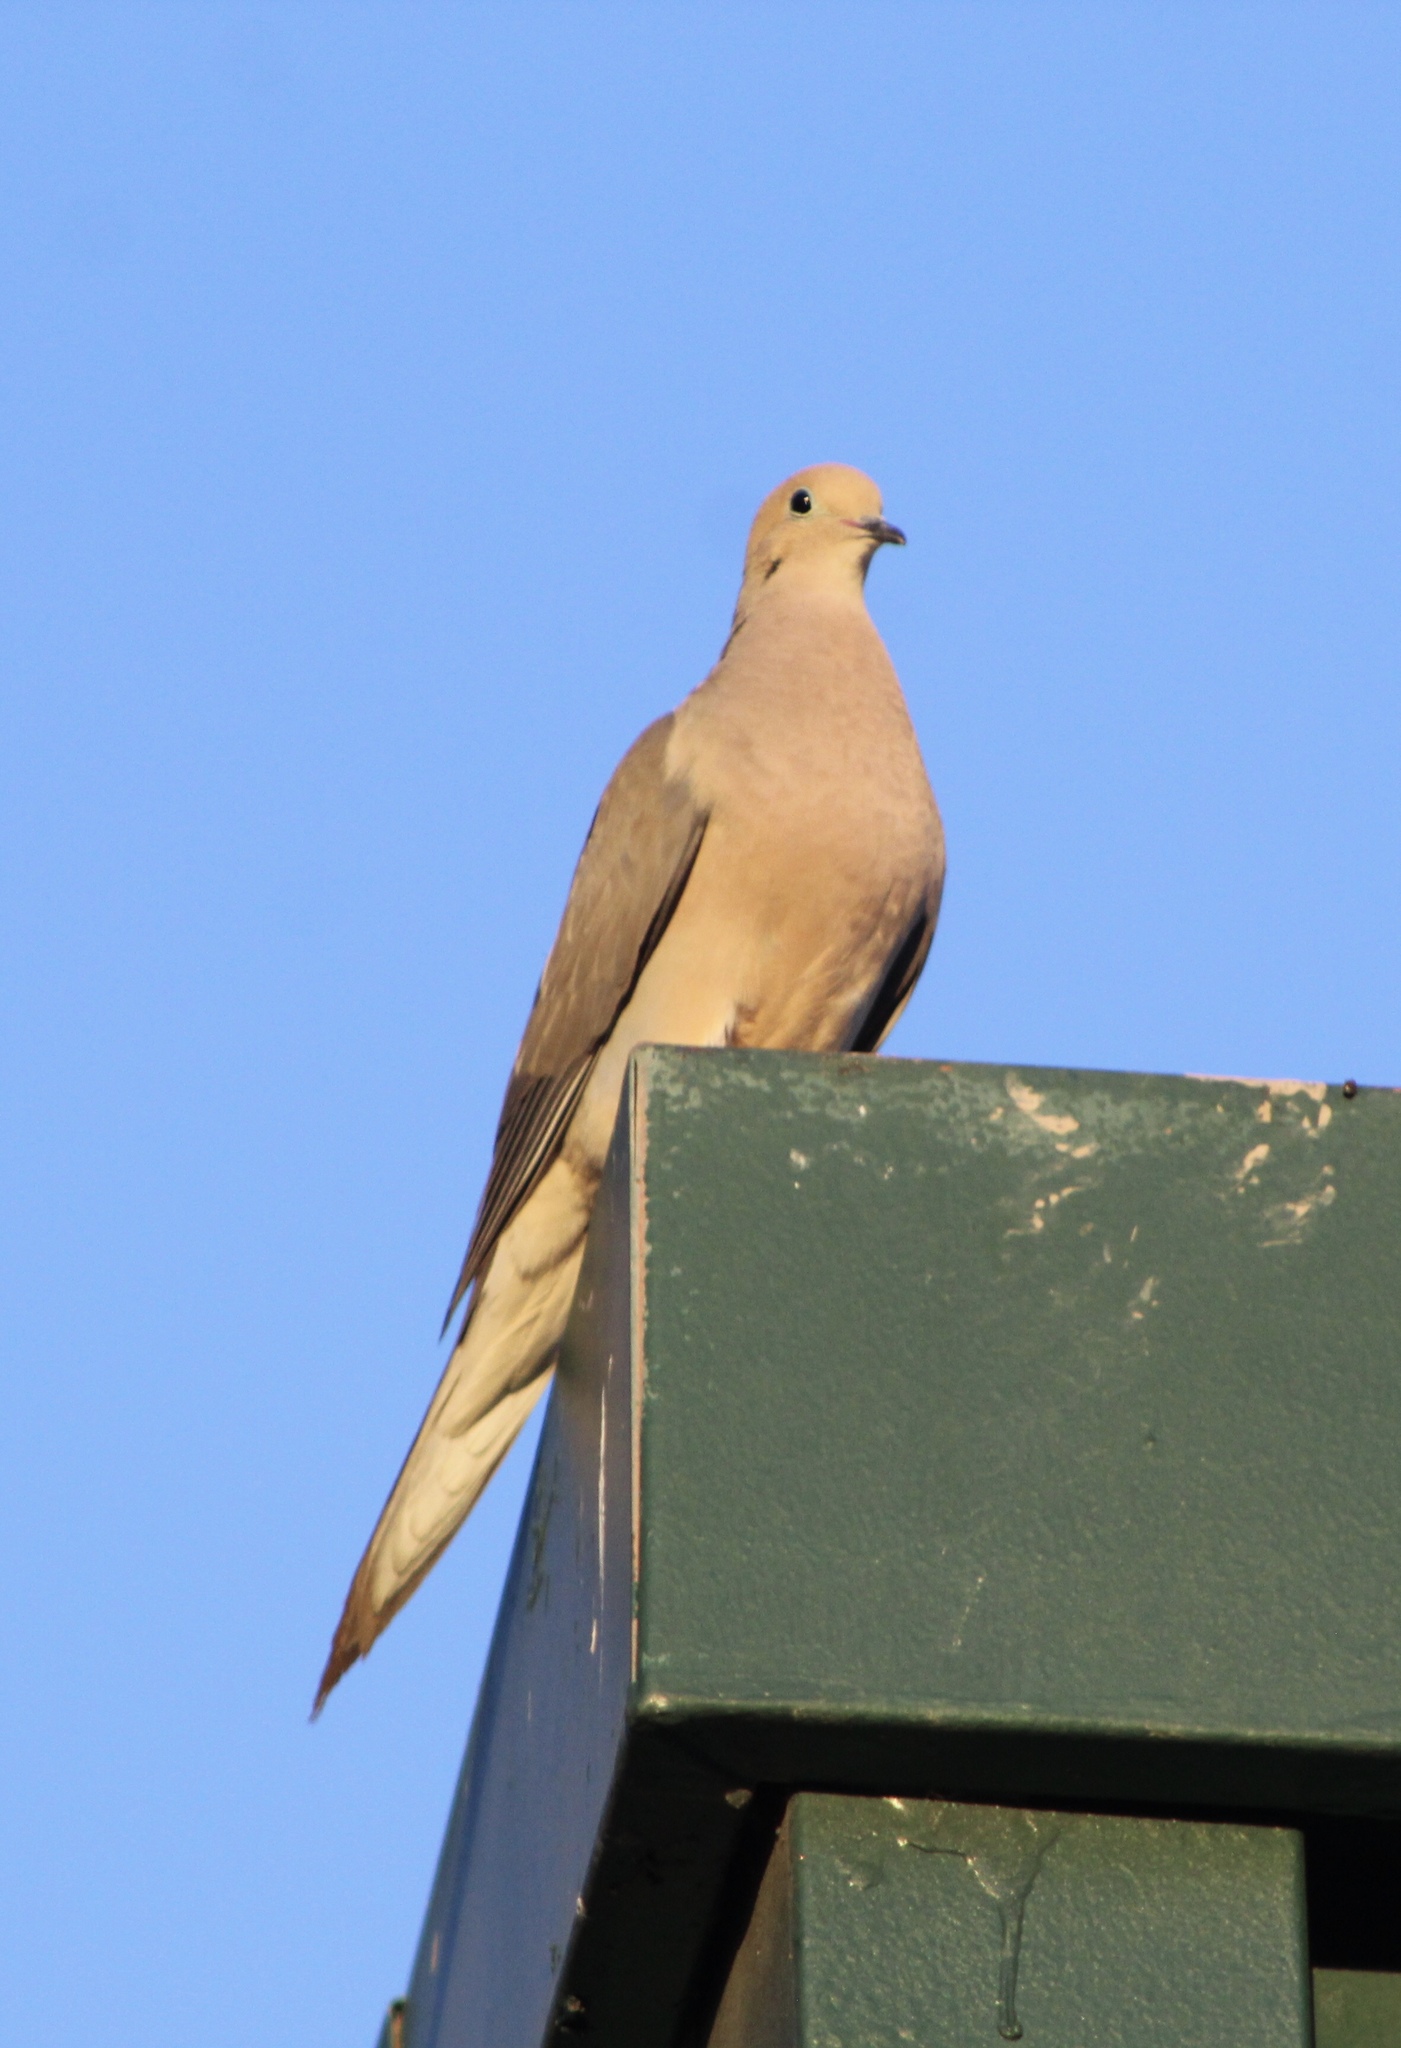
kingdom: Animalia
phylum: Chordata
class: Aves
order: Columbiformes
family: Columbidae
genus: Zenaida
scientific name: Zenaida macroura
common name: Mourning dove
